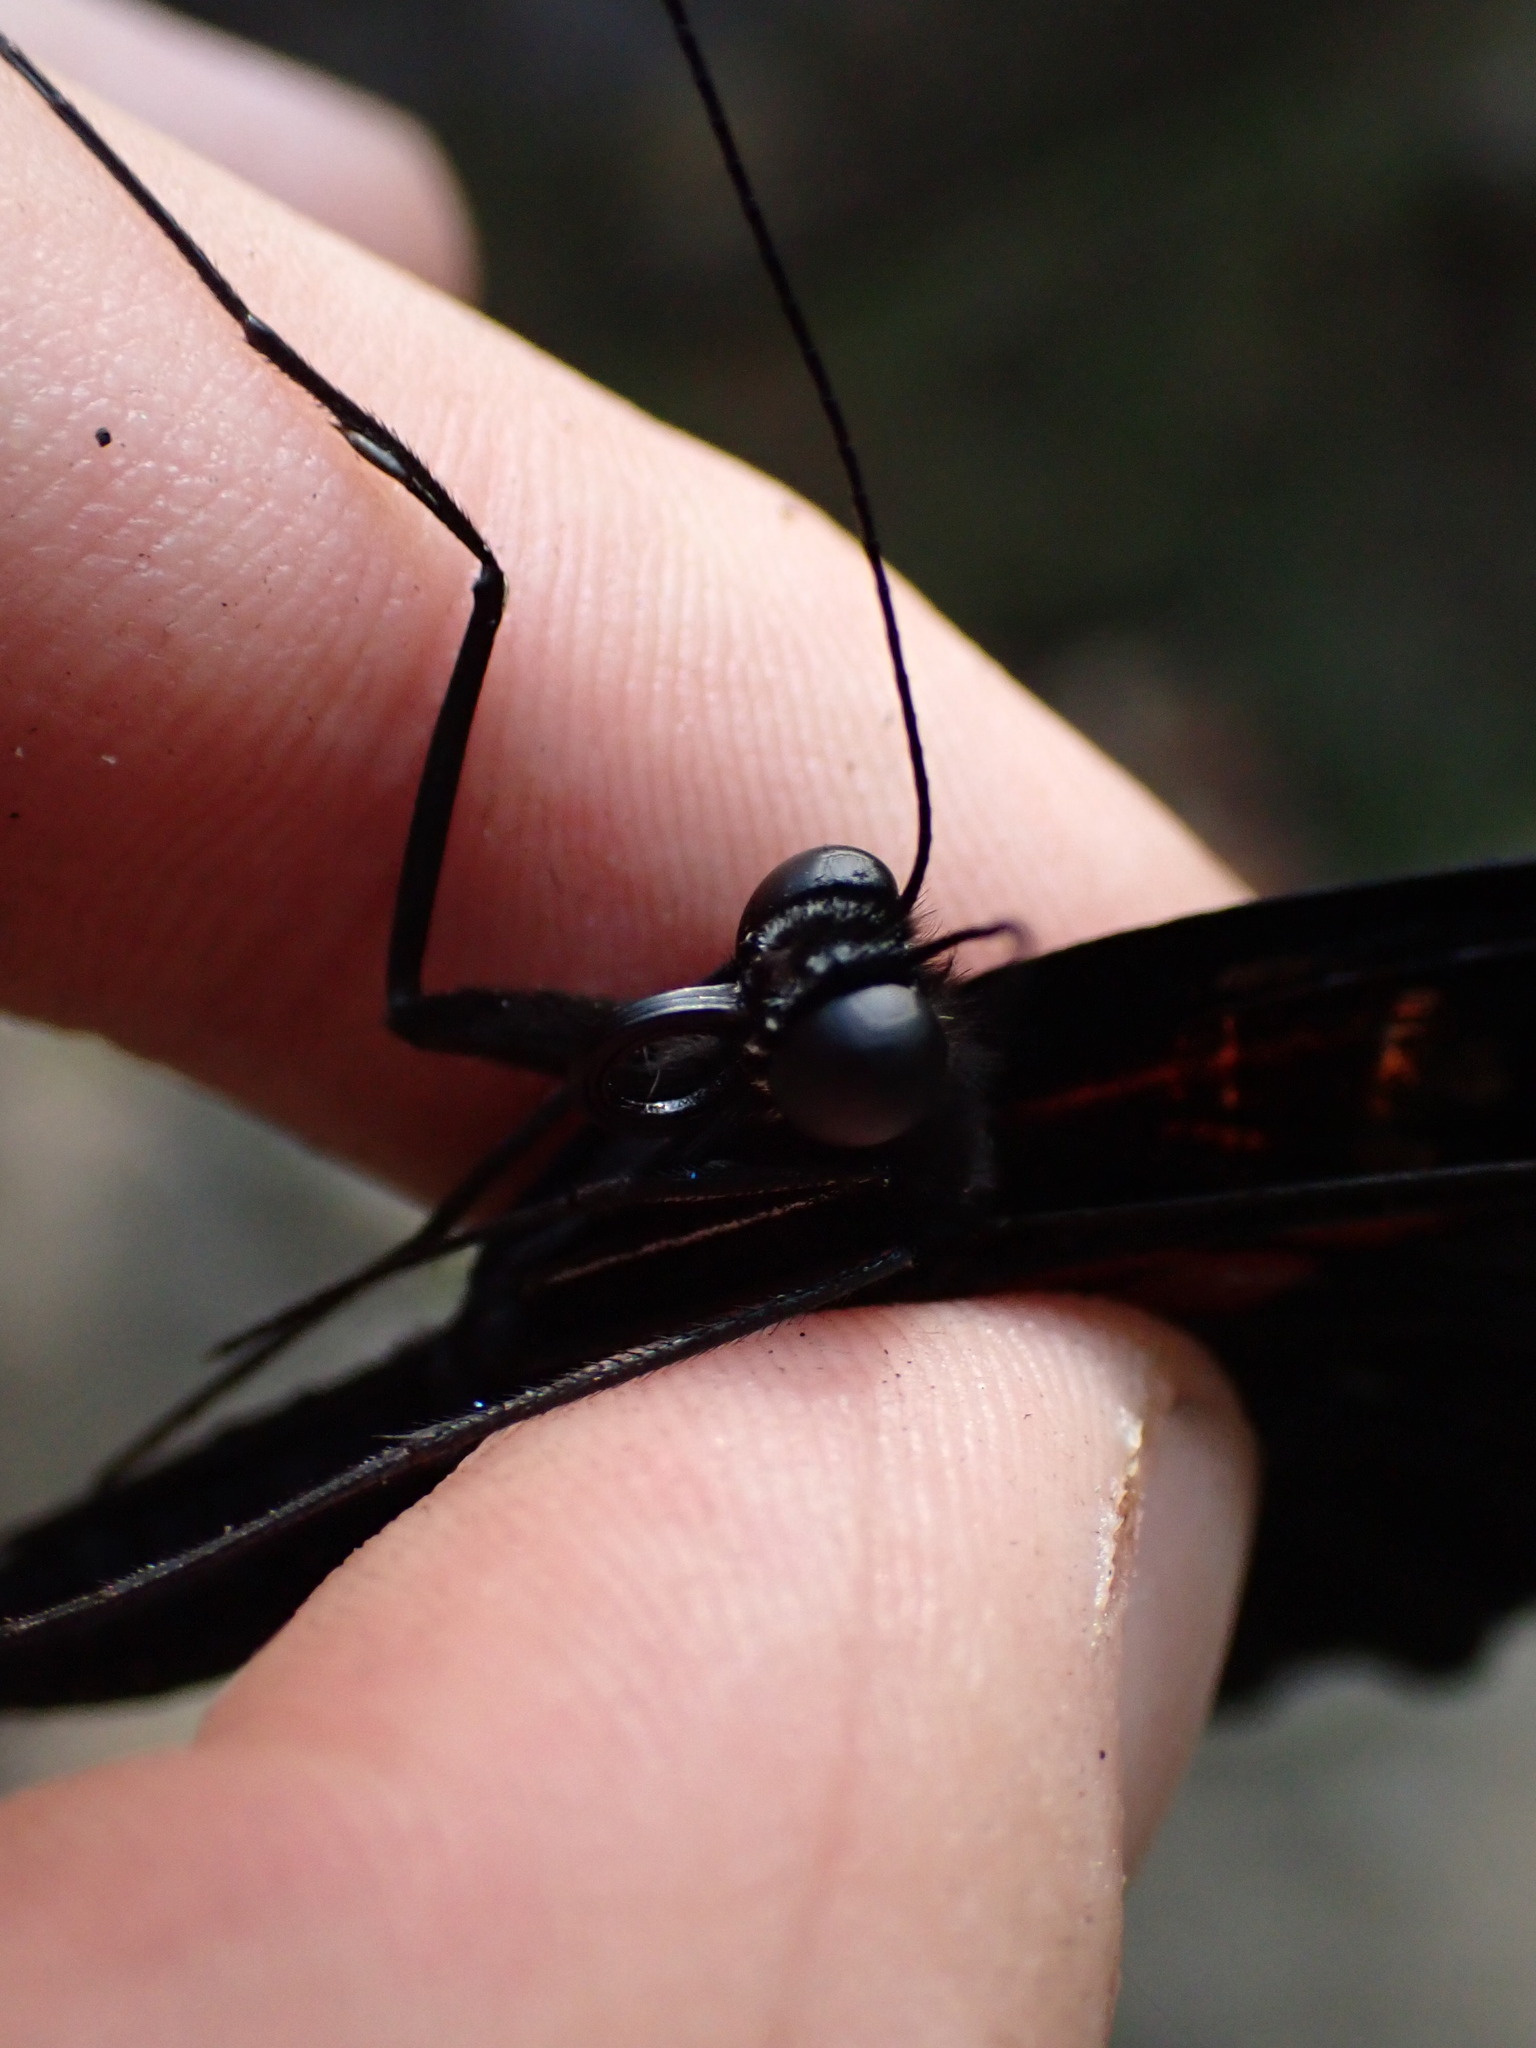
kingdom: Animalia
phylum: Arthropoda
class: Insecta
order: Lepidoptera
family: Papilionidae
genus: Papilio
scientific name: Papilio memnon
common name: Great mormon
